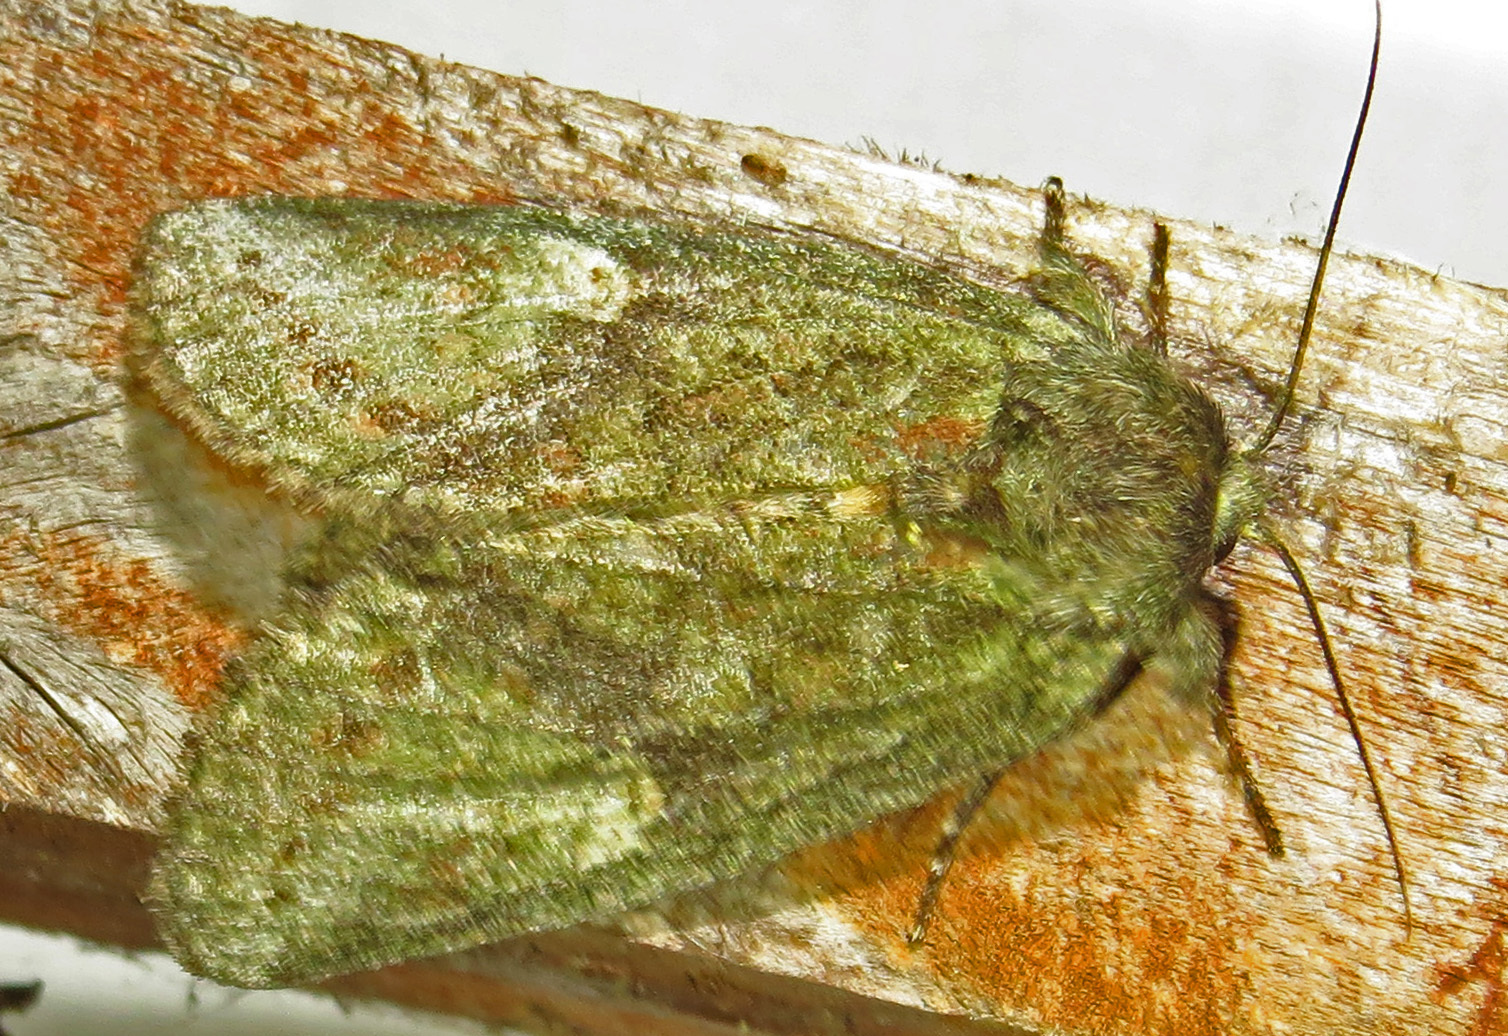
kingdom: Animalia
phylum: Arthropoda
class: Insecta
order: Lepidoptera
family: Notodontidae
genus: Disphragis
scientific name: Disphragis Cecrita guttivitta
